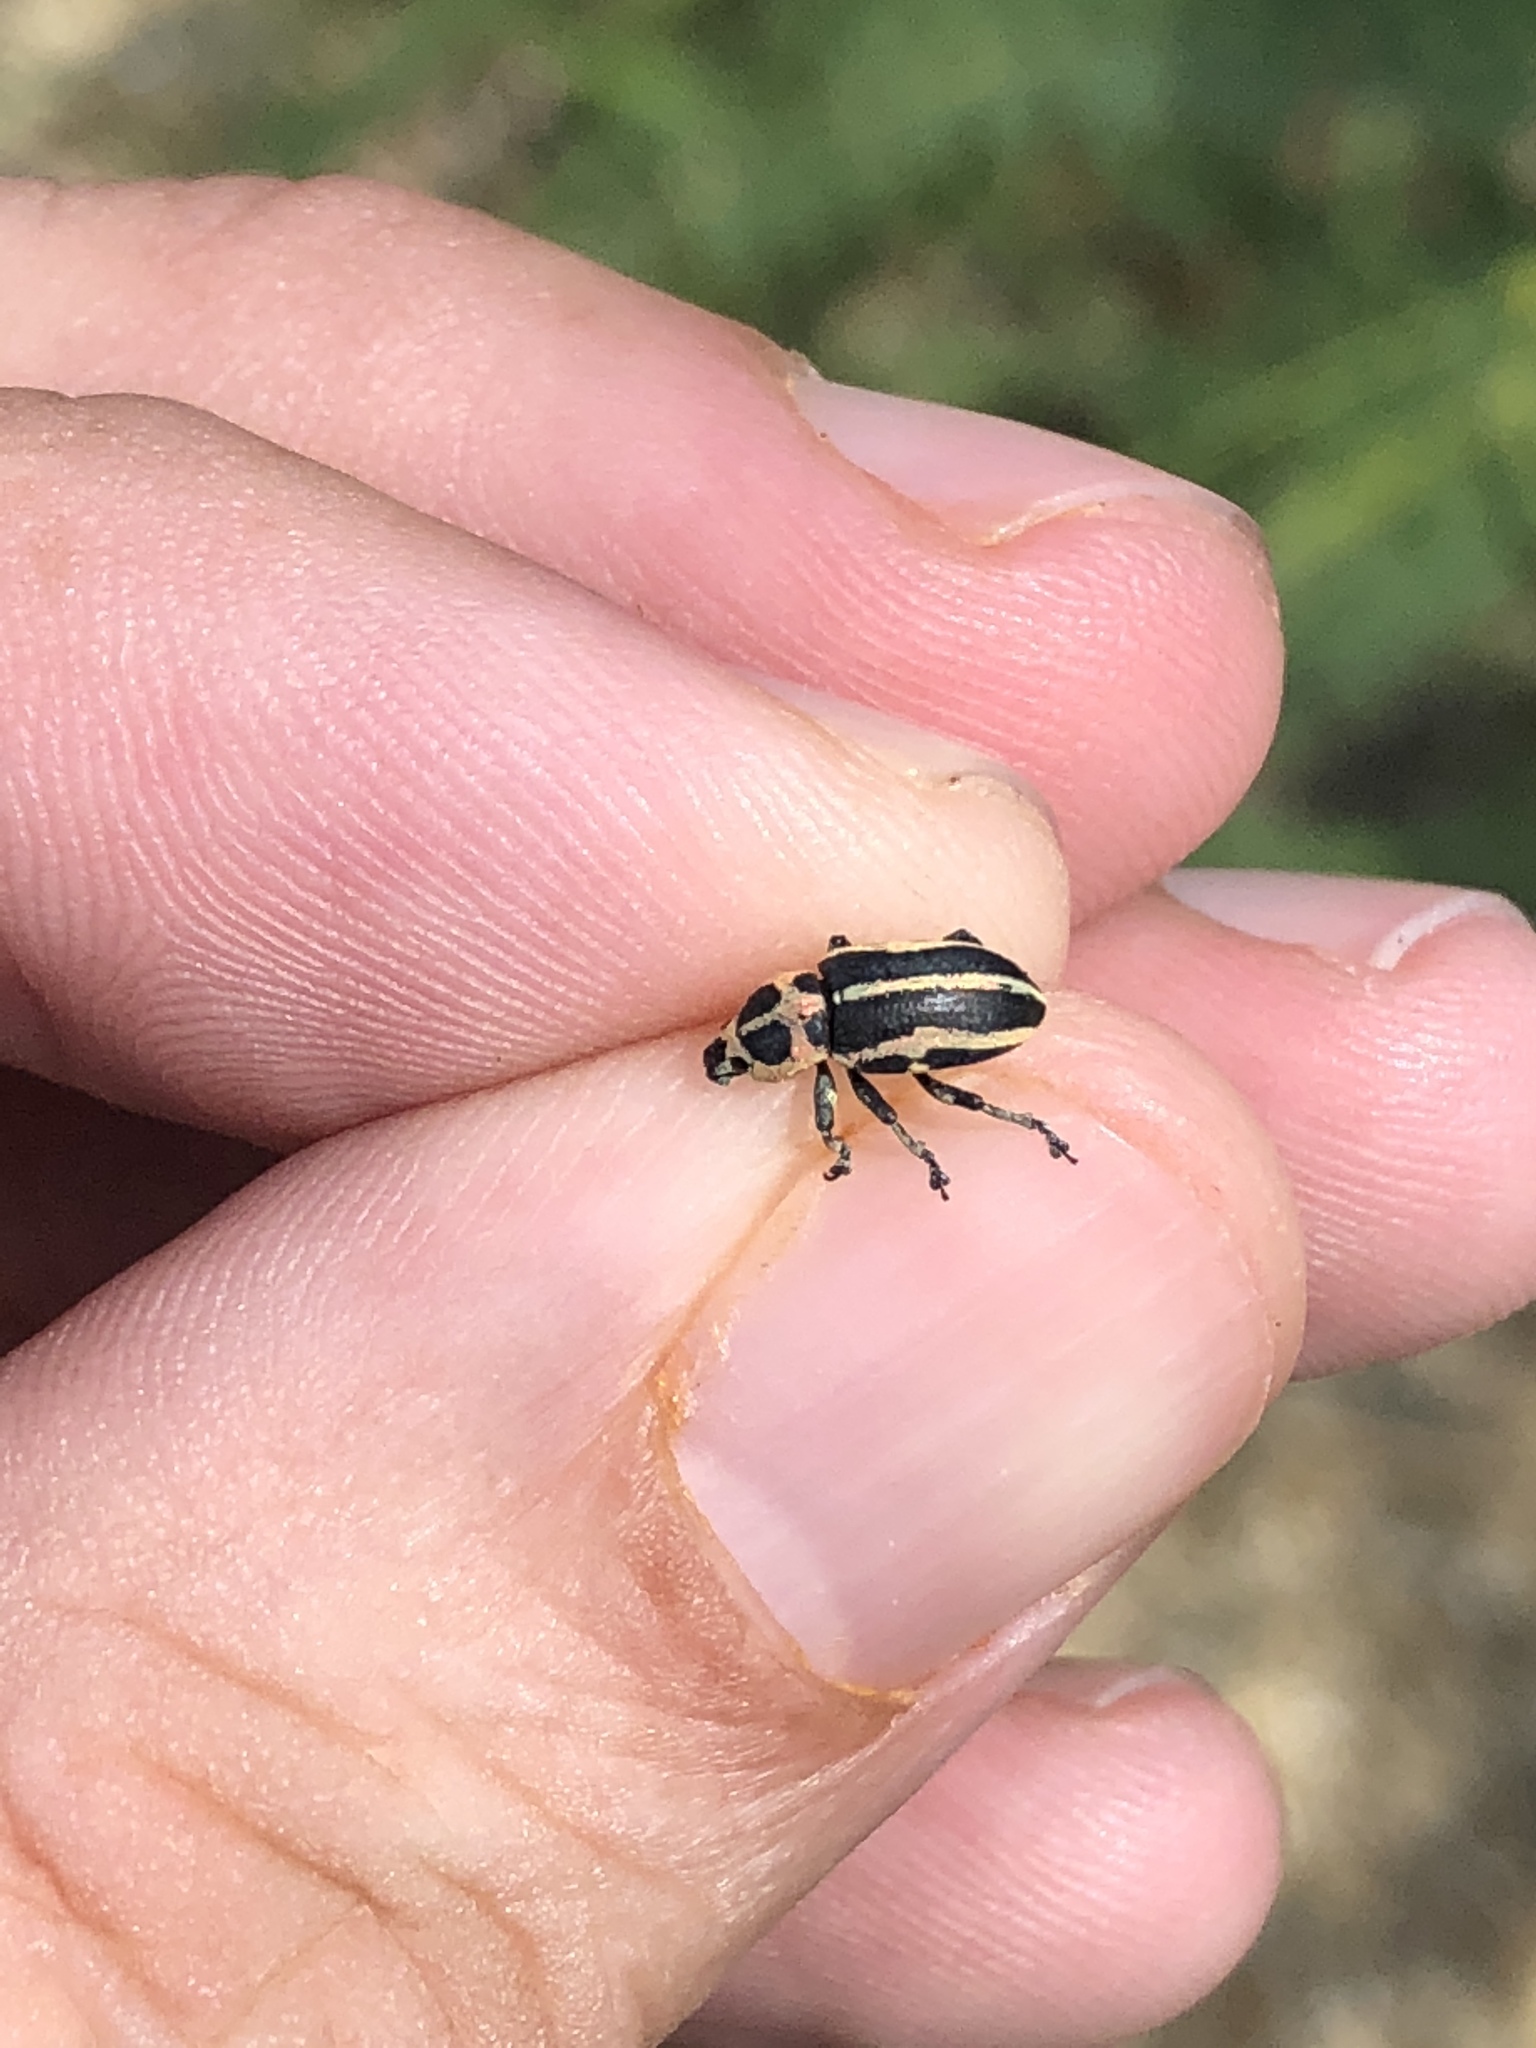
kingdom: Animalia
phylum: Arthropoda
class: Insecta
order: Coleoptera
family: Curculionidae
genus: Eudiagogus
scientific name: Eudiagogus pulcher
